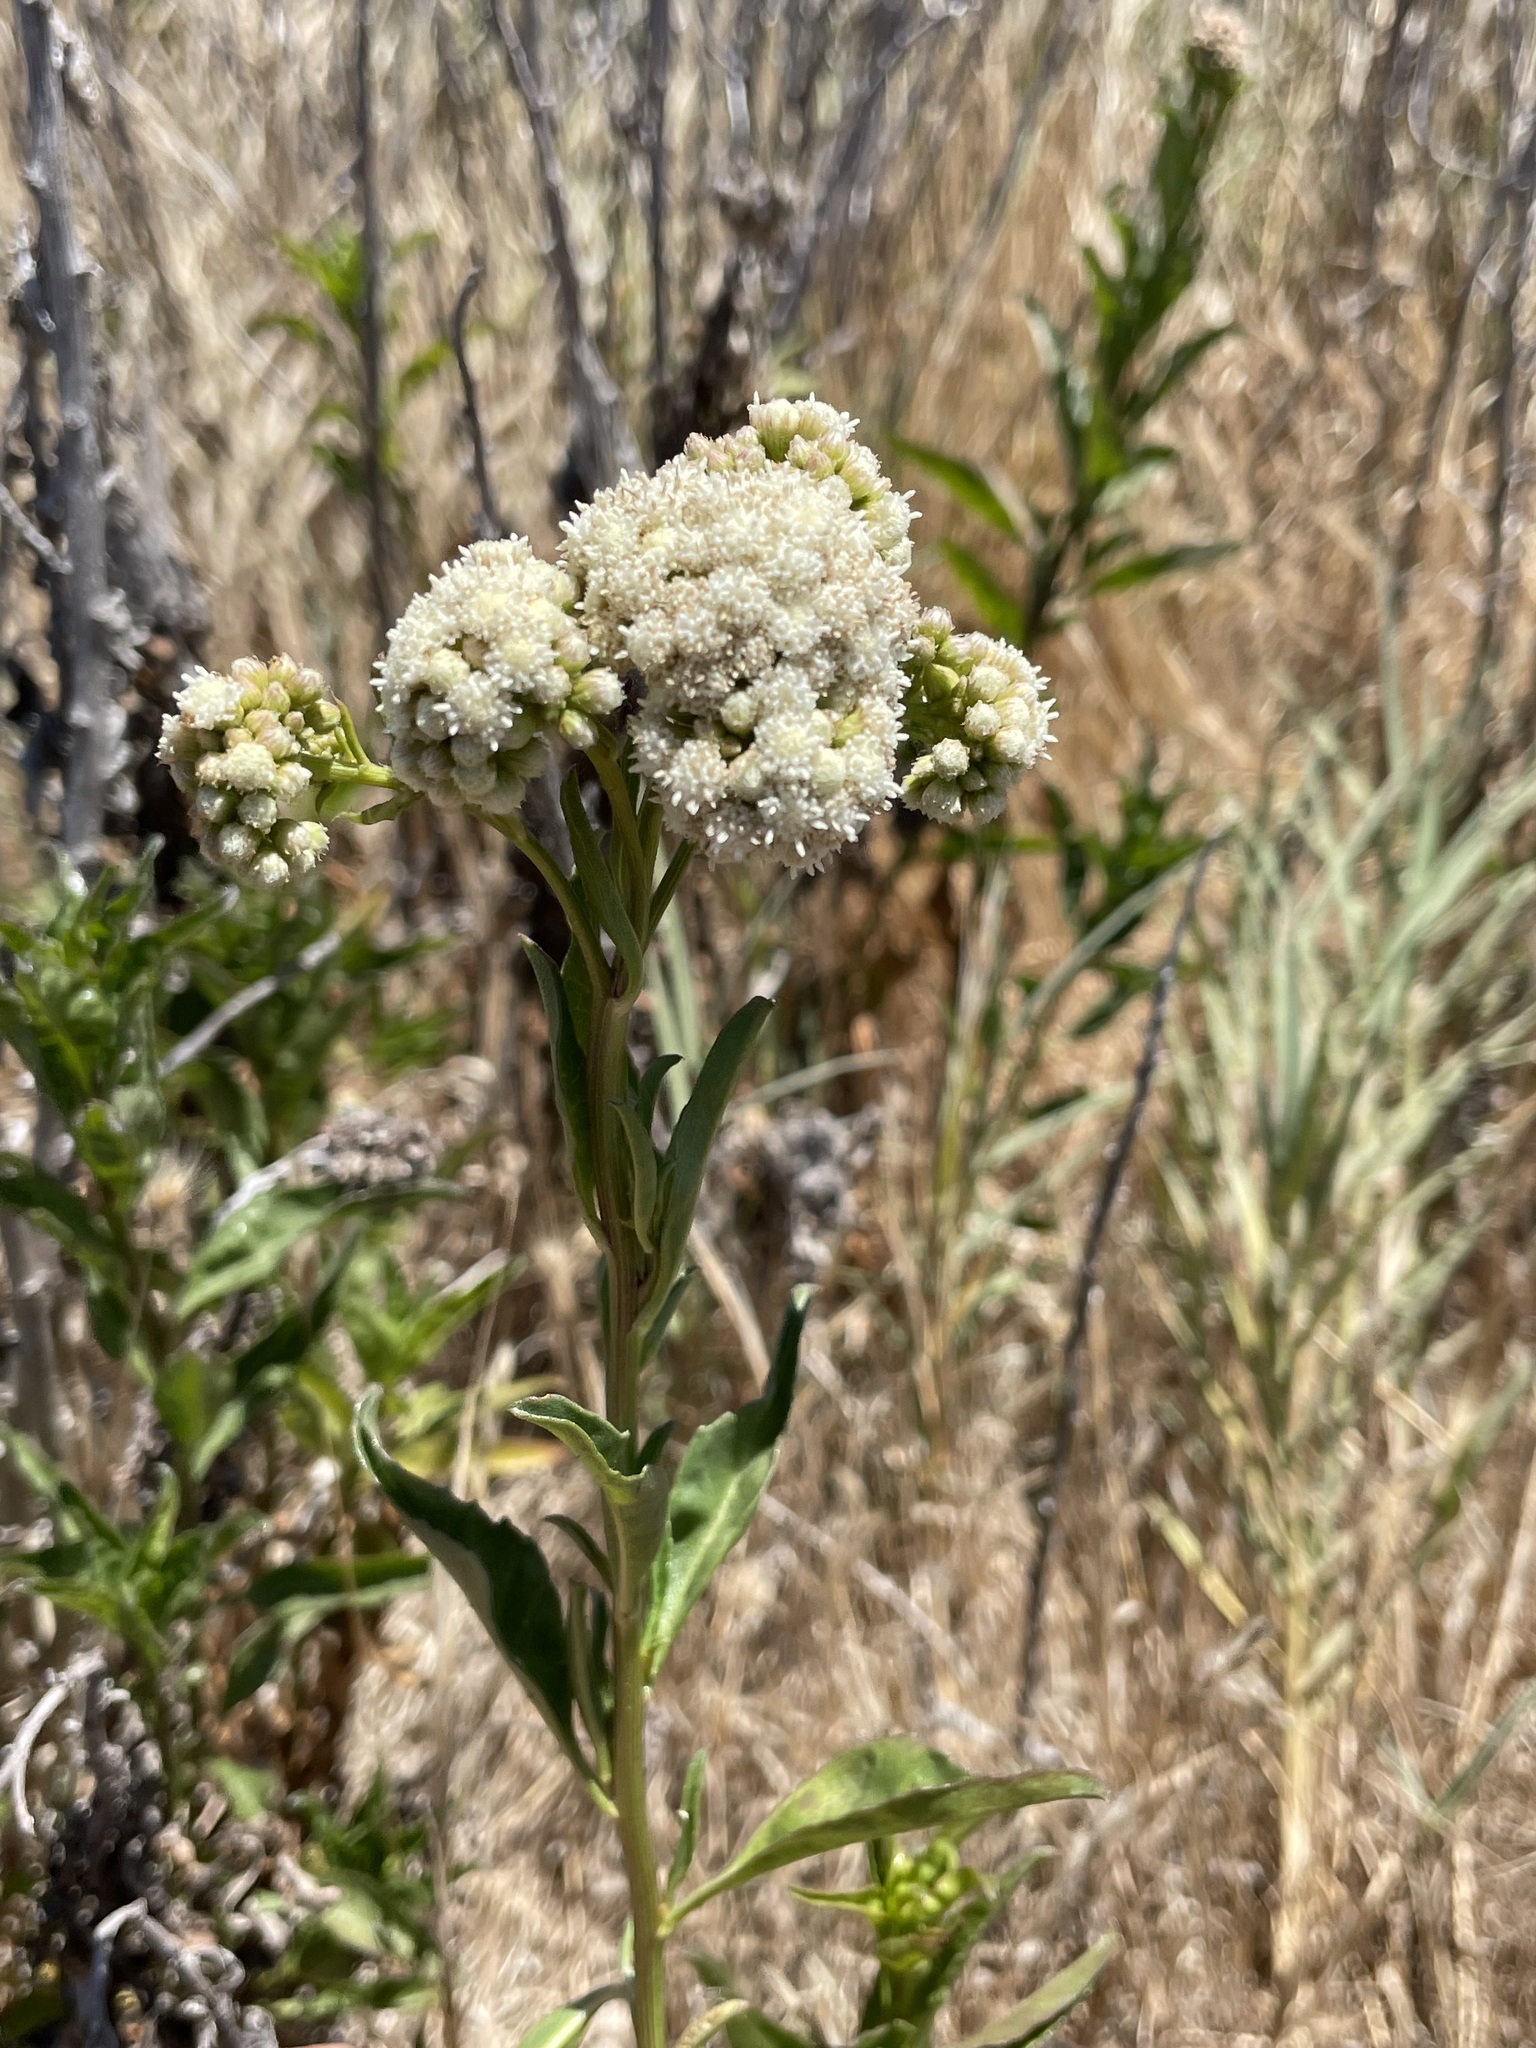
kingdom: Plantae
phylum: Tracheophyta
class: Magnoliopsida
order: Asterales
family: Asteraceae
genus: Baccharis
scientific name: Baccharis glutinosa
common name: Saltmarsh baccharis
